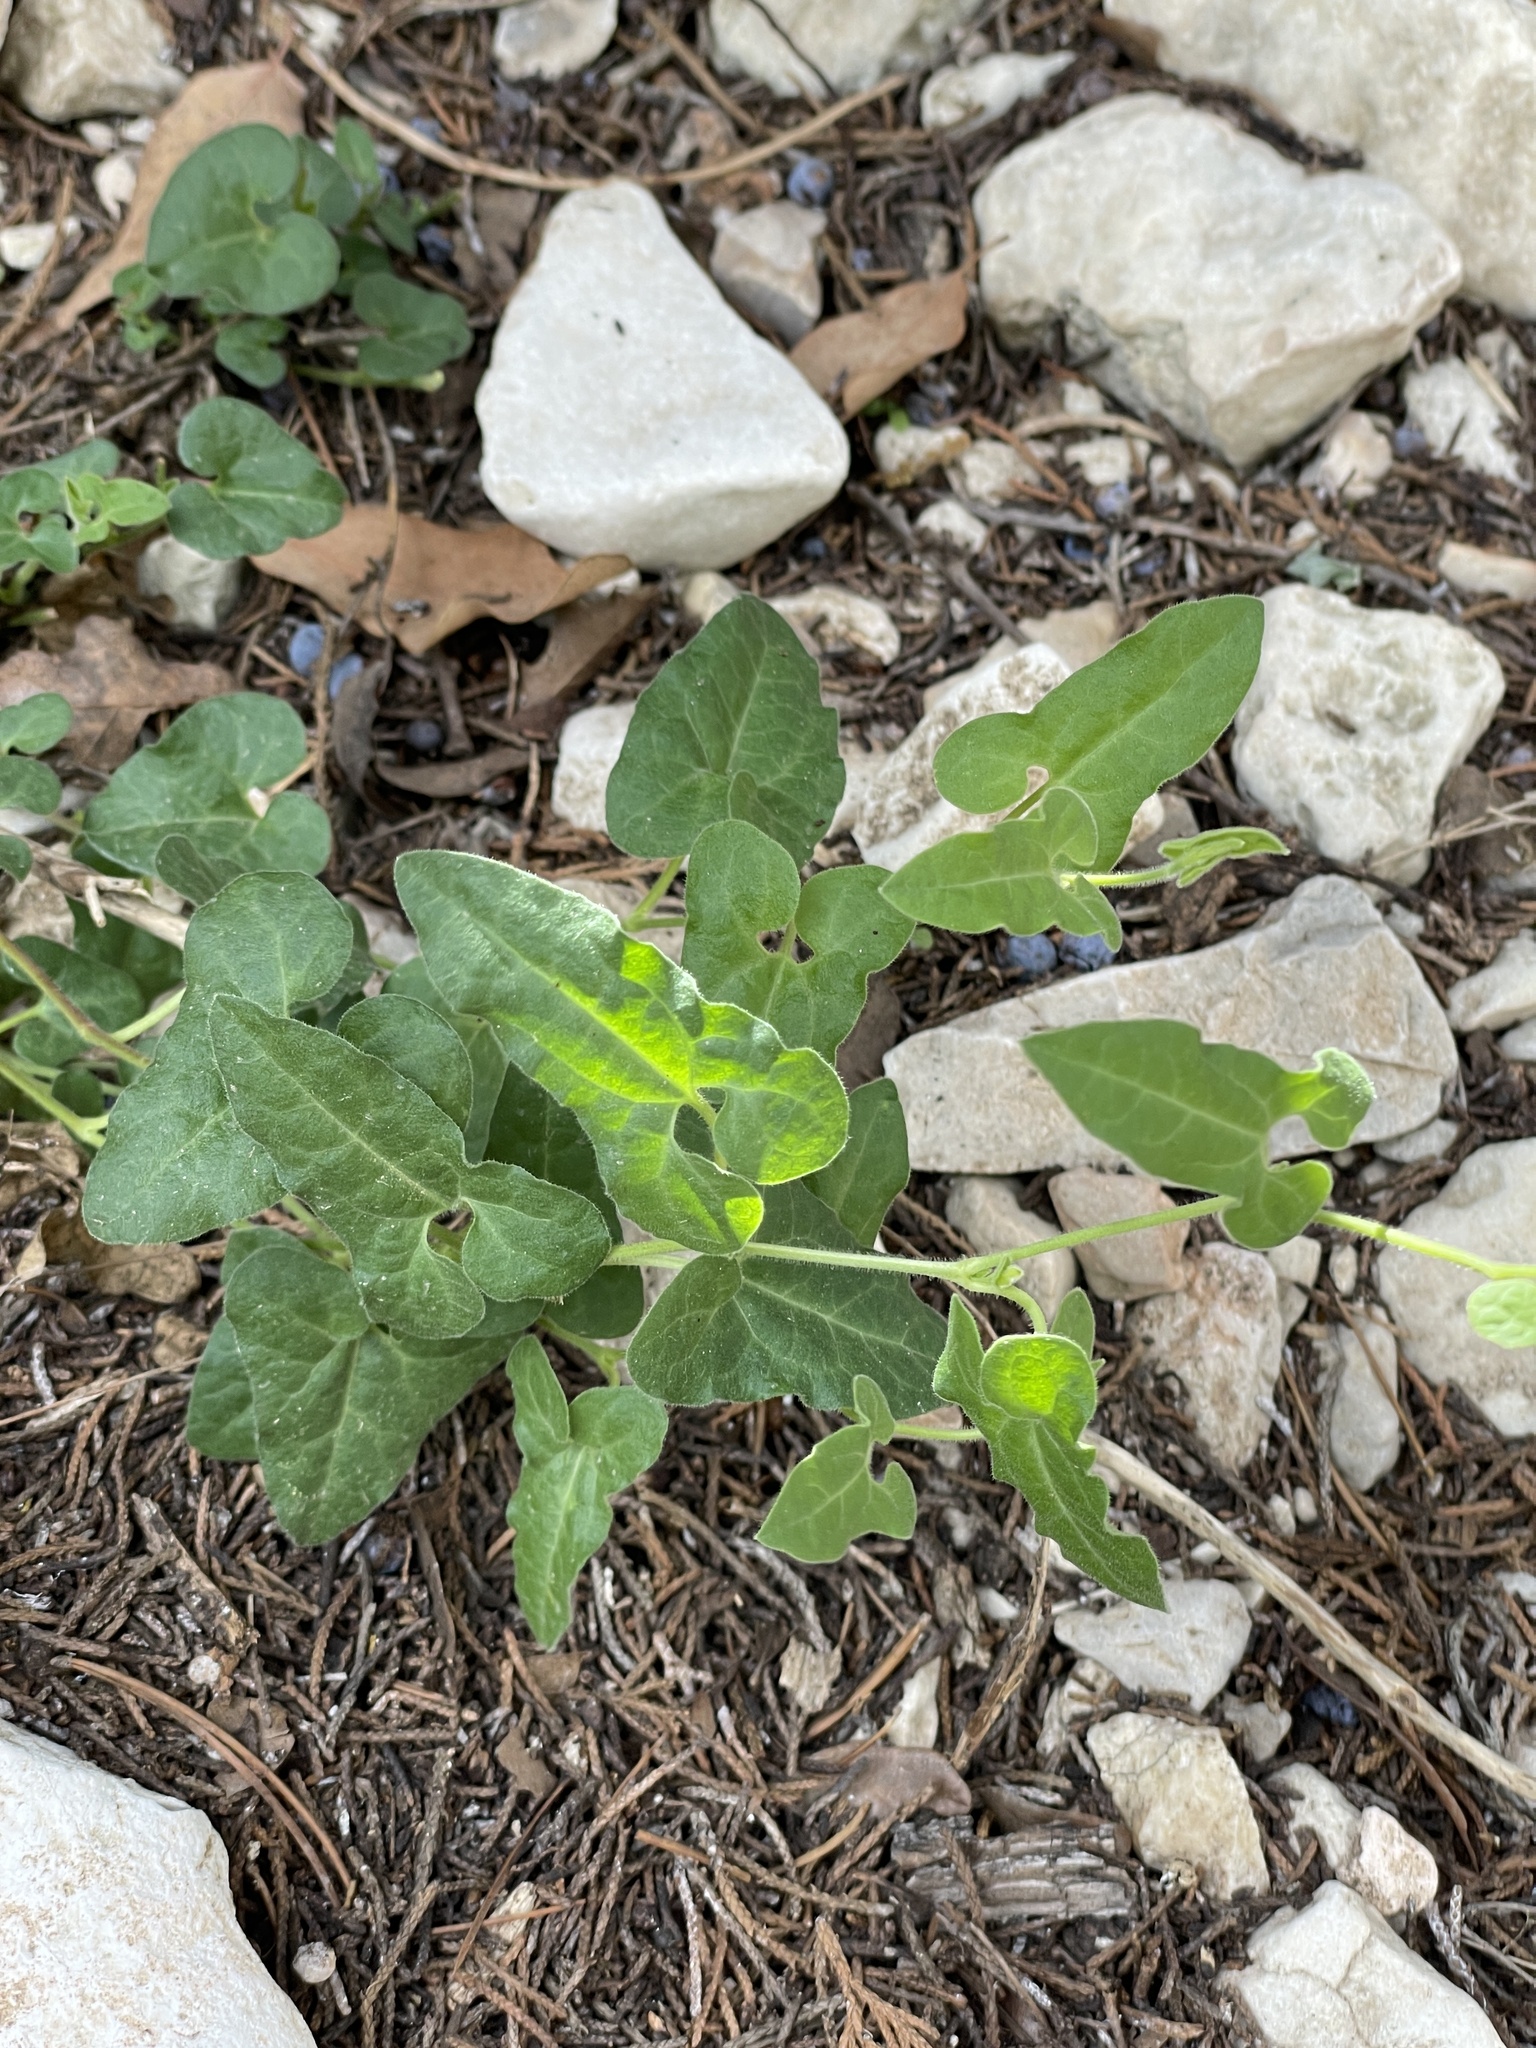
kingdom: Plantae
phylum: Tracheophyta
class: Magnoliopsida
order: Piperales
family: Aristolochiaceae
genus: Aristolochia
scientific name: Aristolochia coryi
